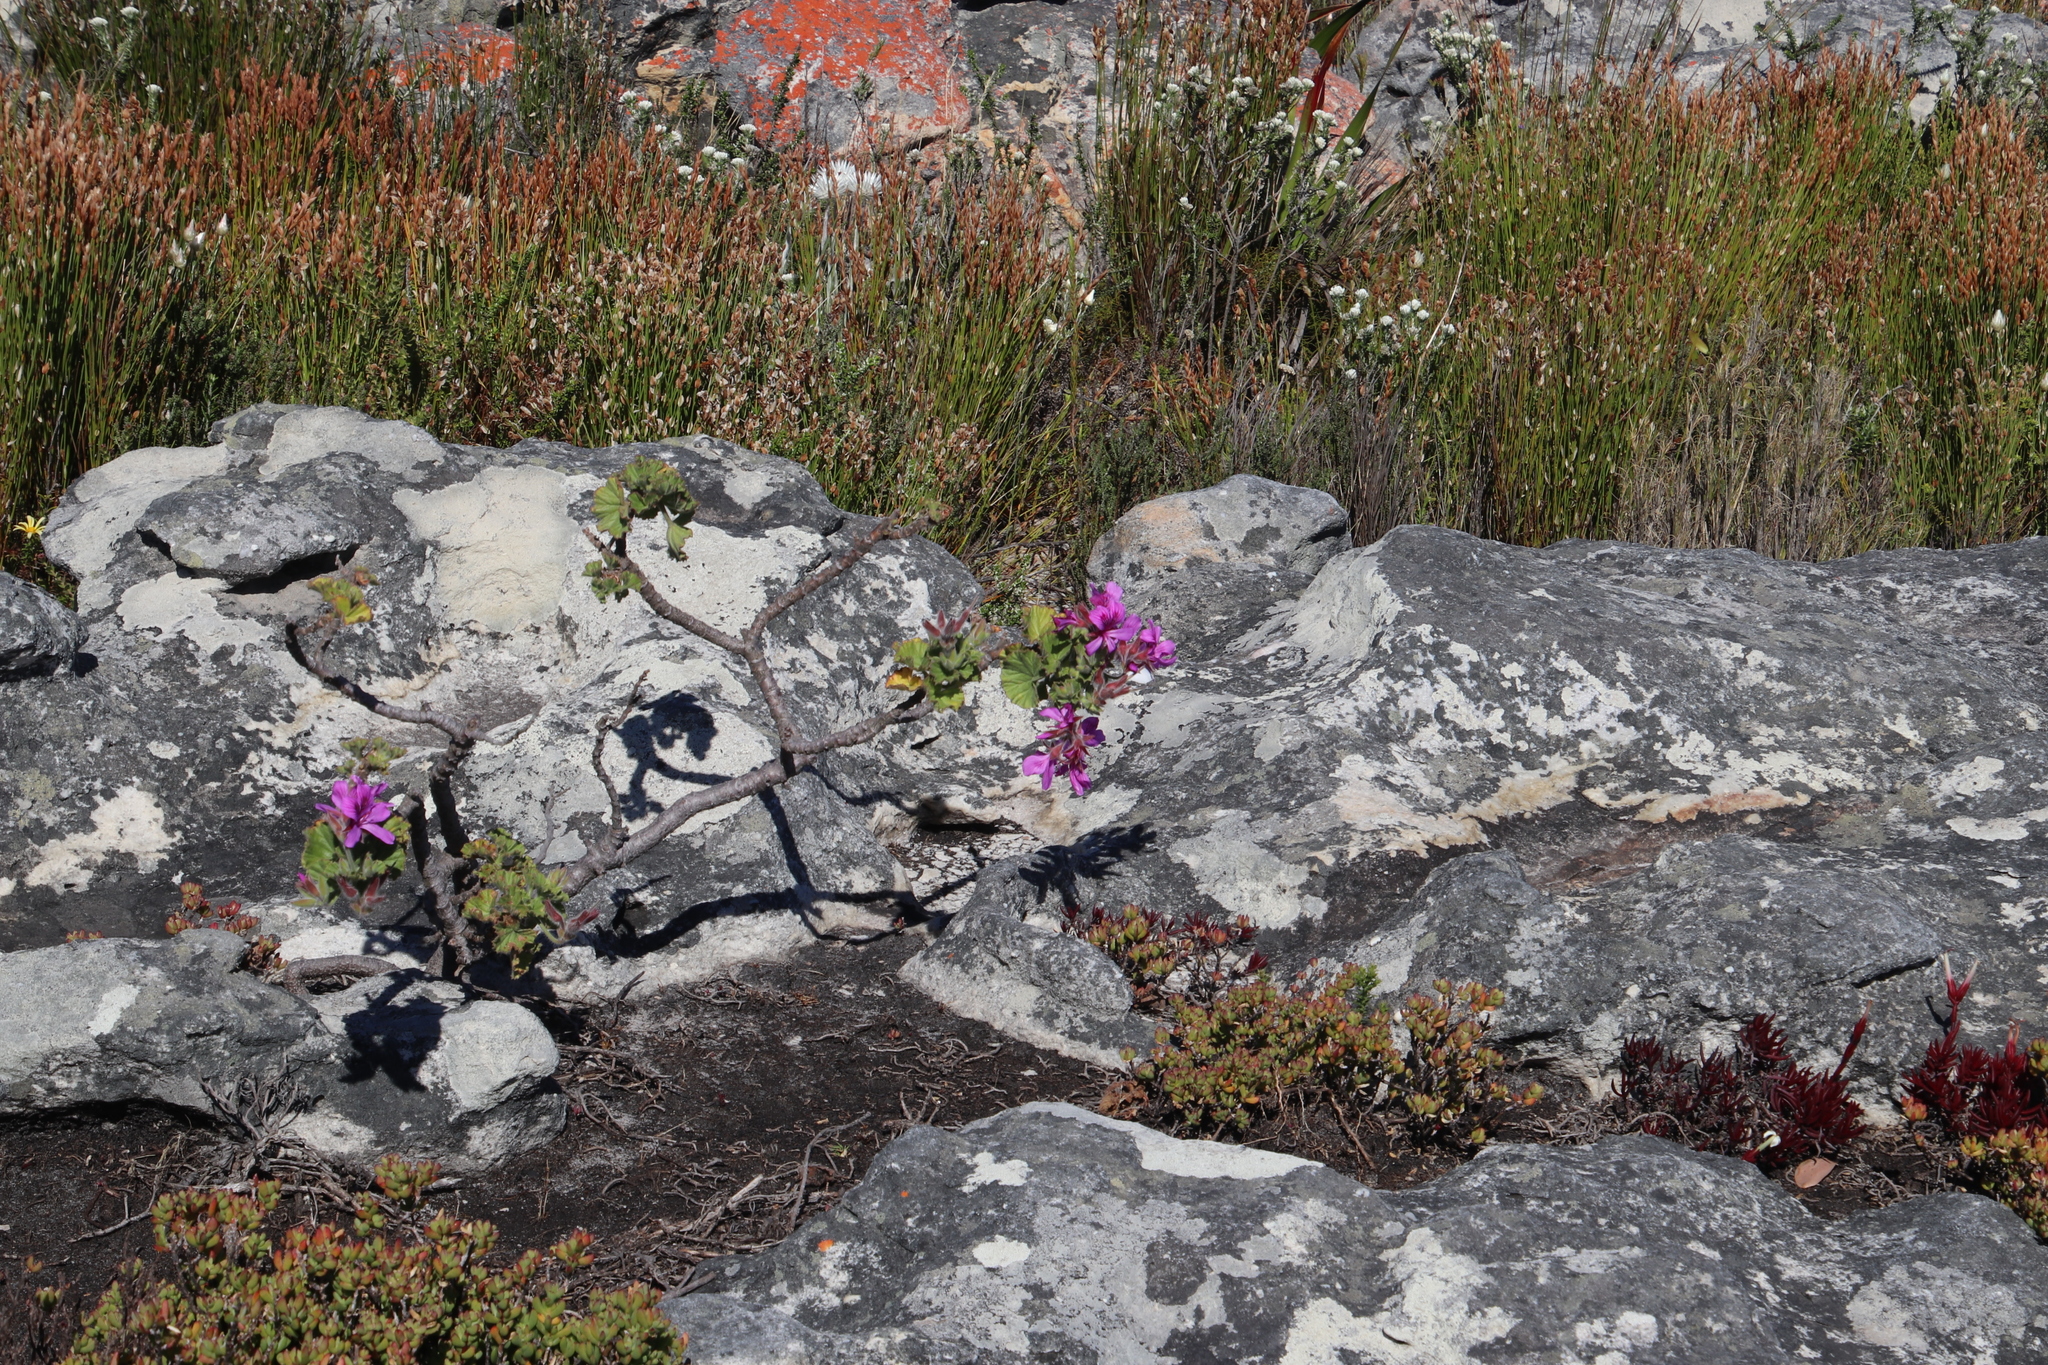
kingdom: Plantae
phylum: Tracheophyta
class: Magnoliopsida
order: Geraniales
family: Geraniaceae
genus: Pelargonium
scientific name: Pelargonium cucullatum
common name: Tree pelargonium
